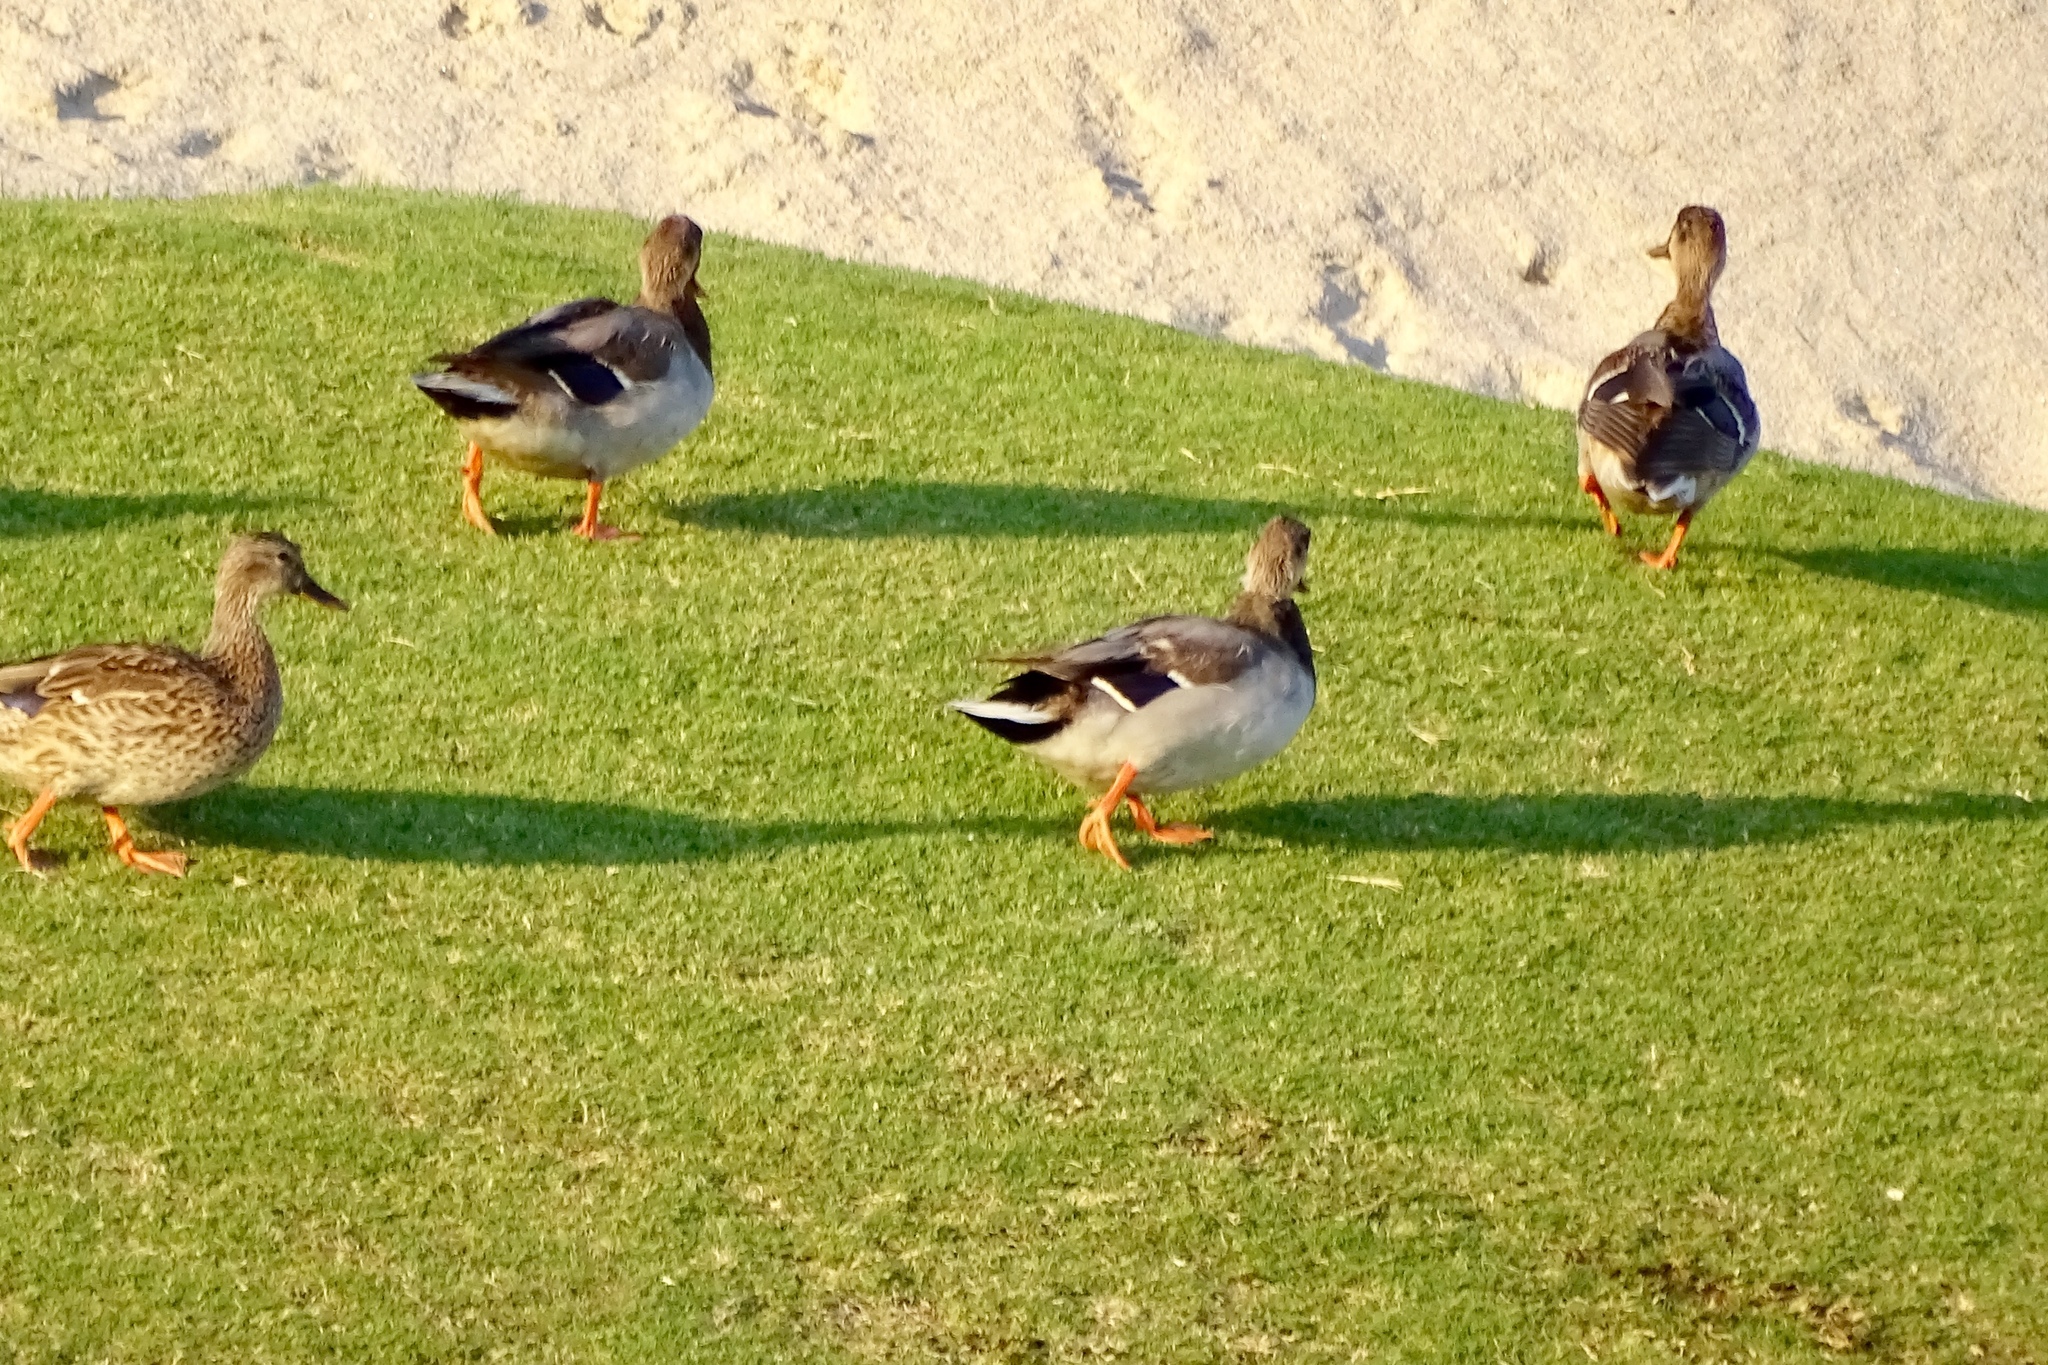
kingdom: Animalia
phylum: Chordata
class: Aves
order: Anseriformes
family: Anatidae
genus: Anas
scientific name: Anas platyrhynchos
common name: Mallard
